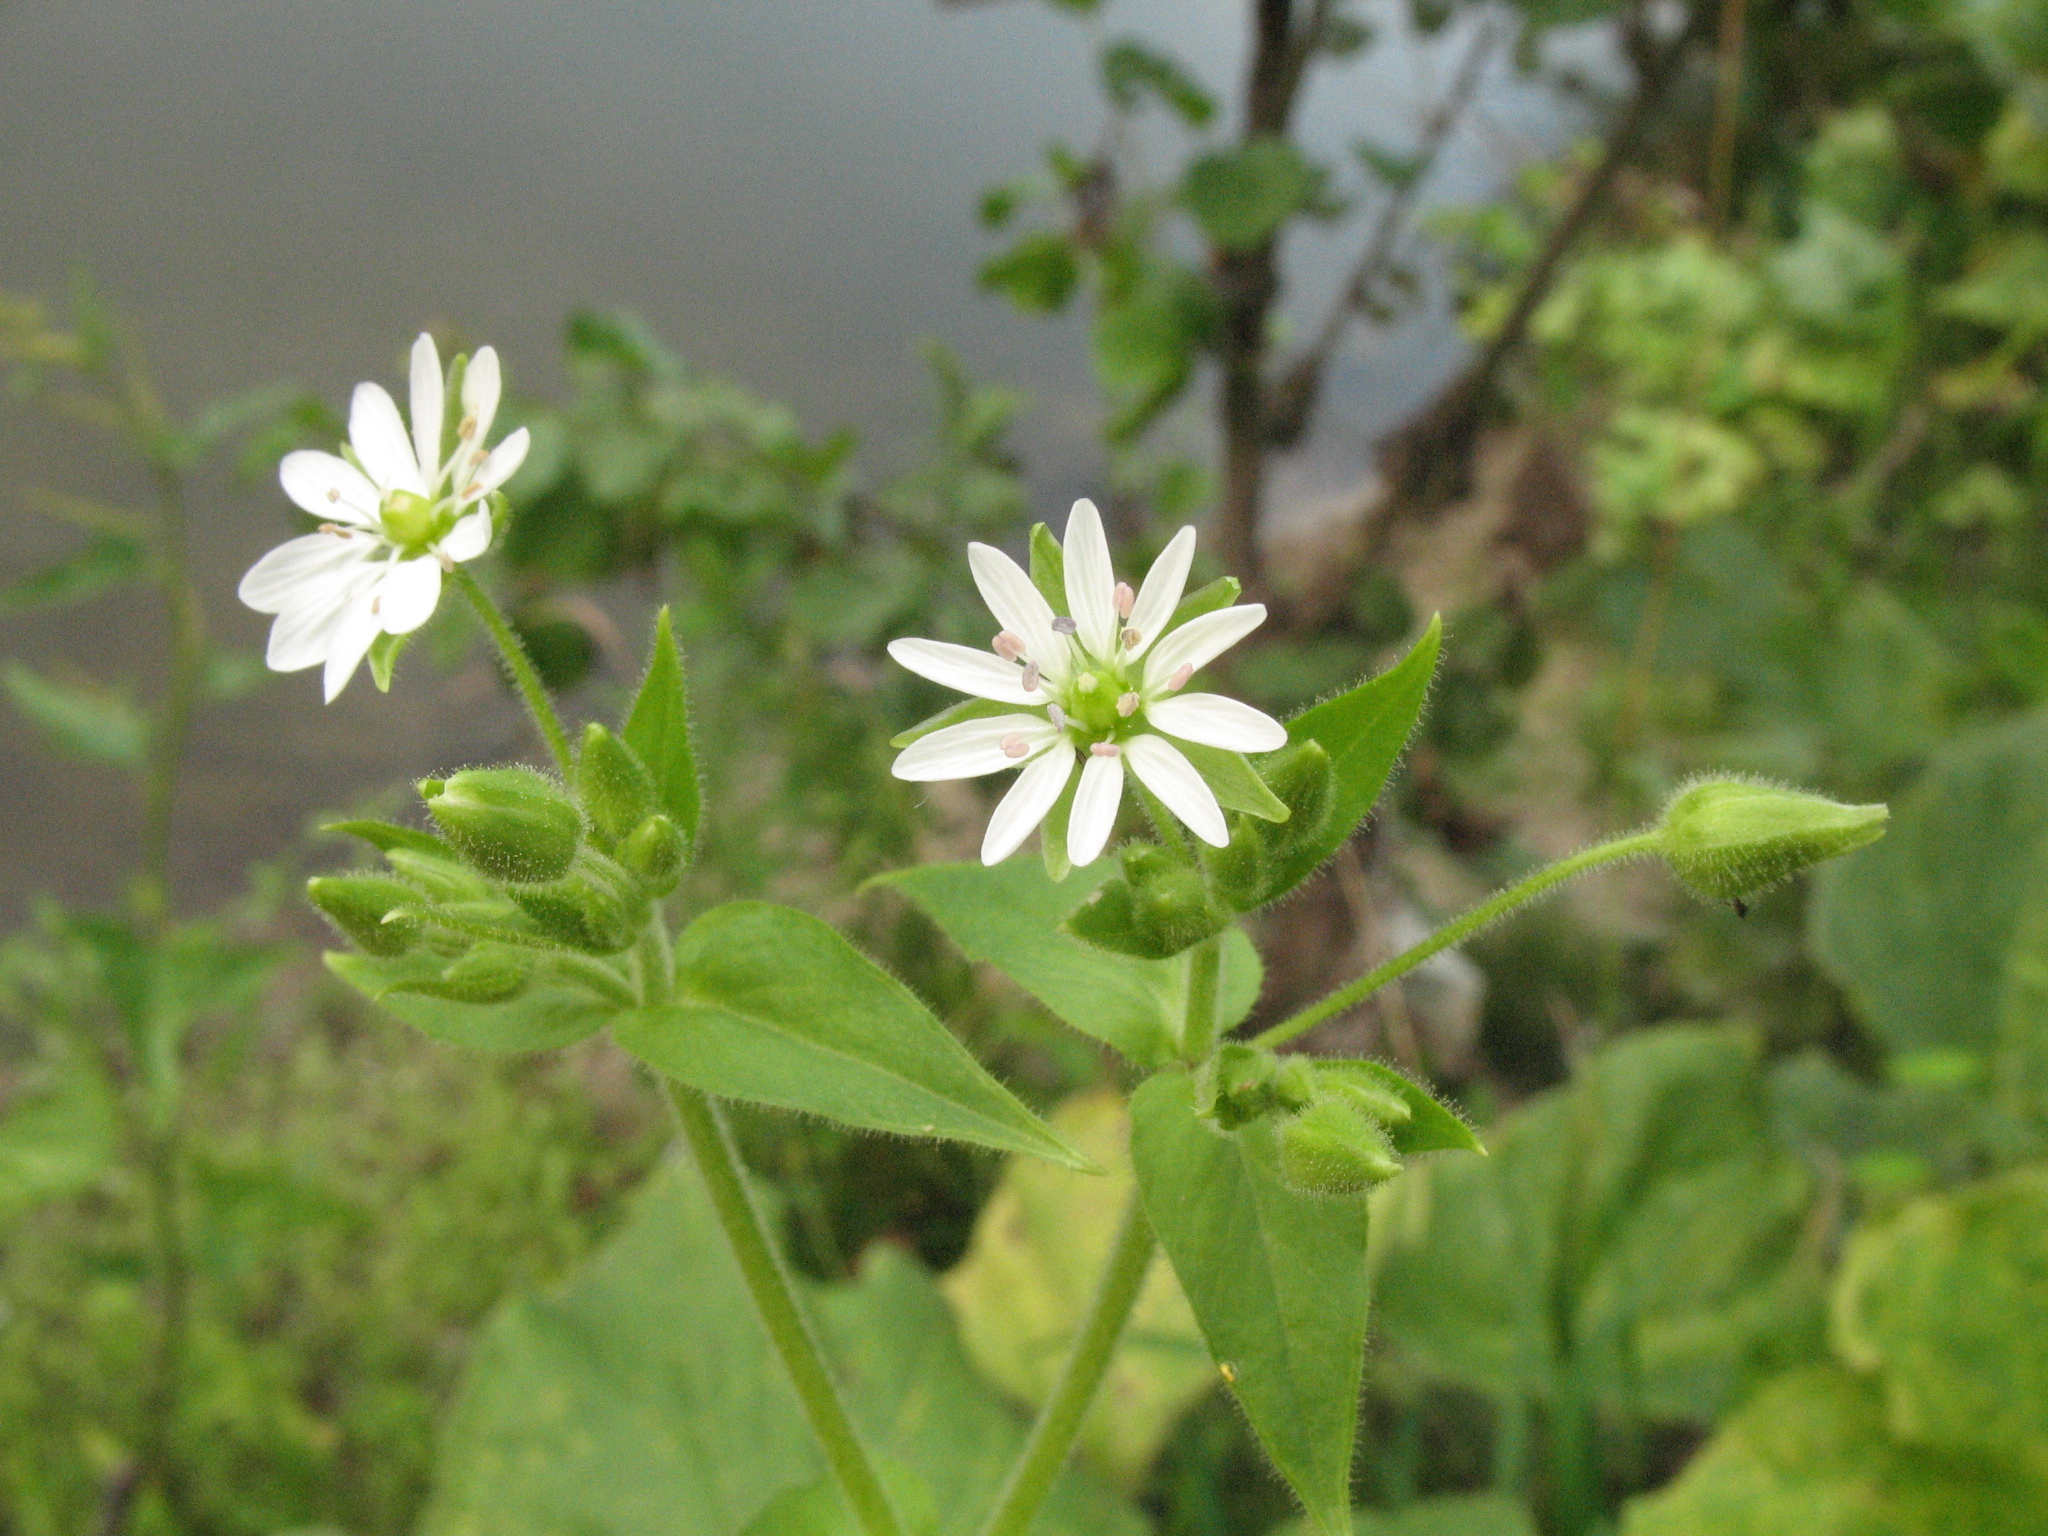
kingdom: Plantae
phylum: Tracheophyta
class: Magnoliopsida
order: Caryophyllales
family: Caryophyllaceae
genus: Stellaria
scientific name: Stellaria aquatica
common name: Water chickweed
